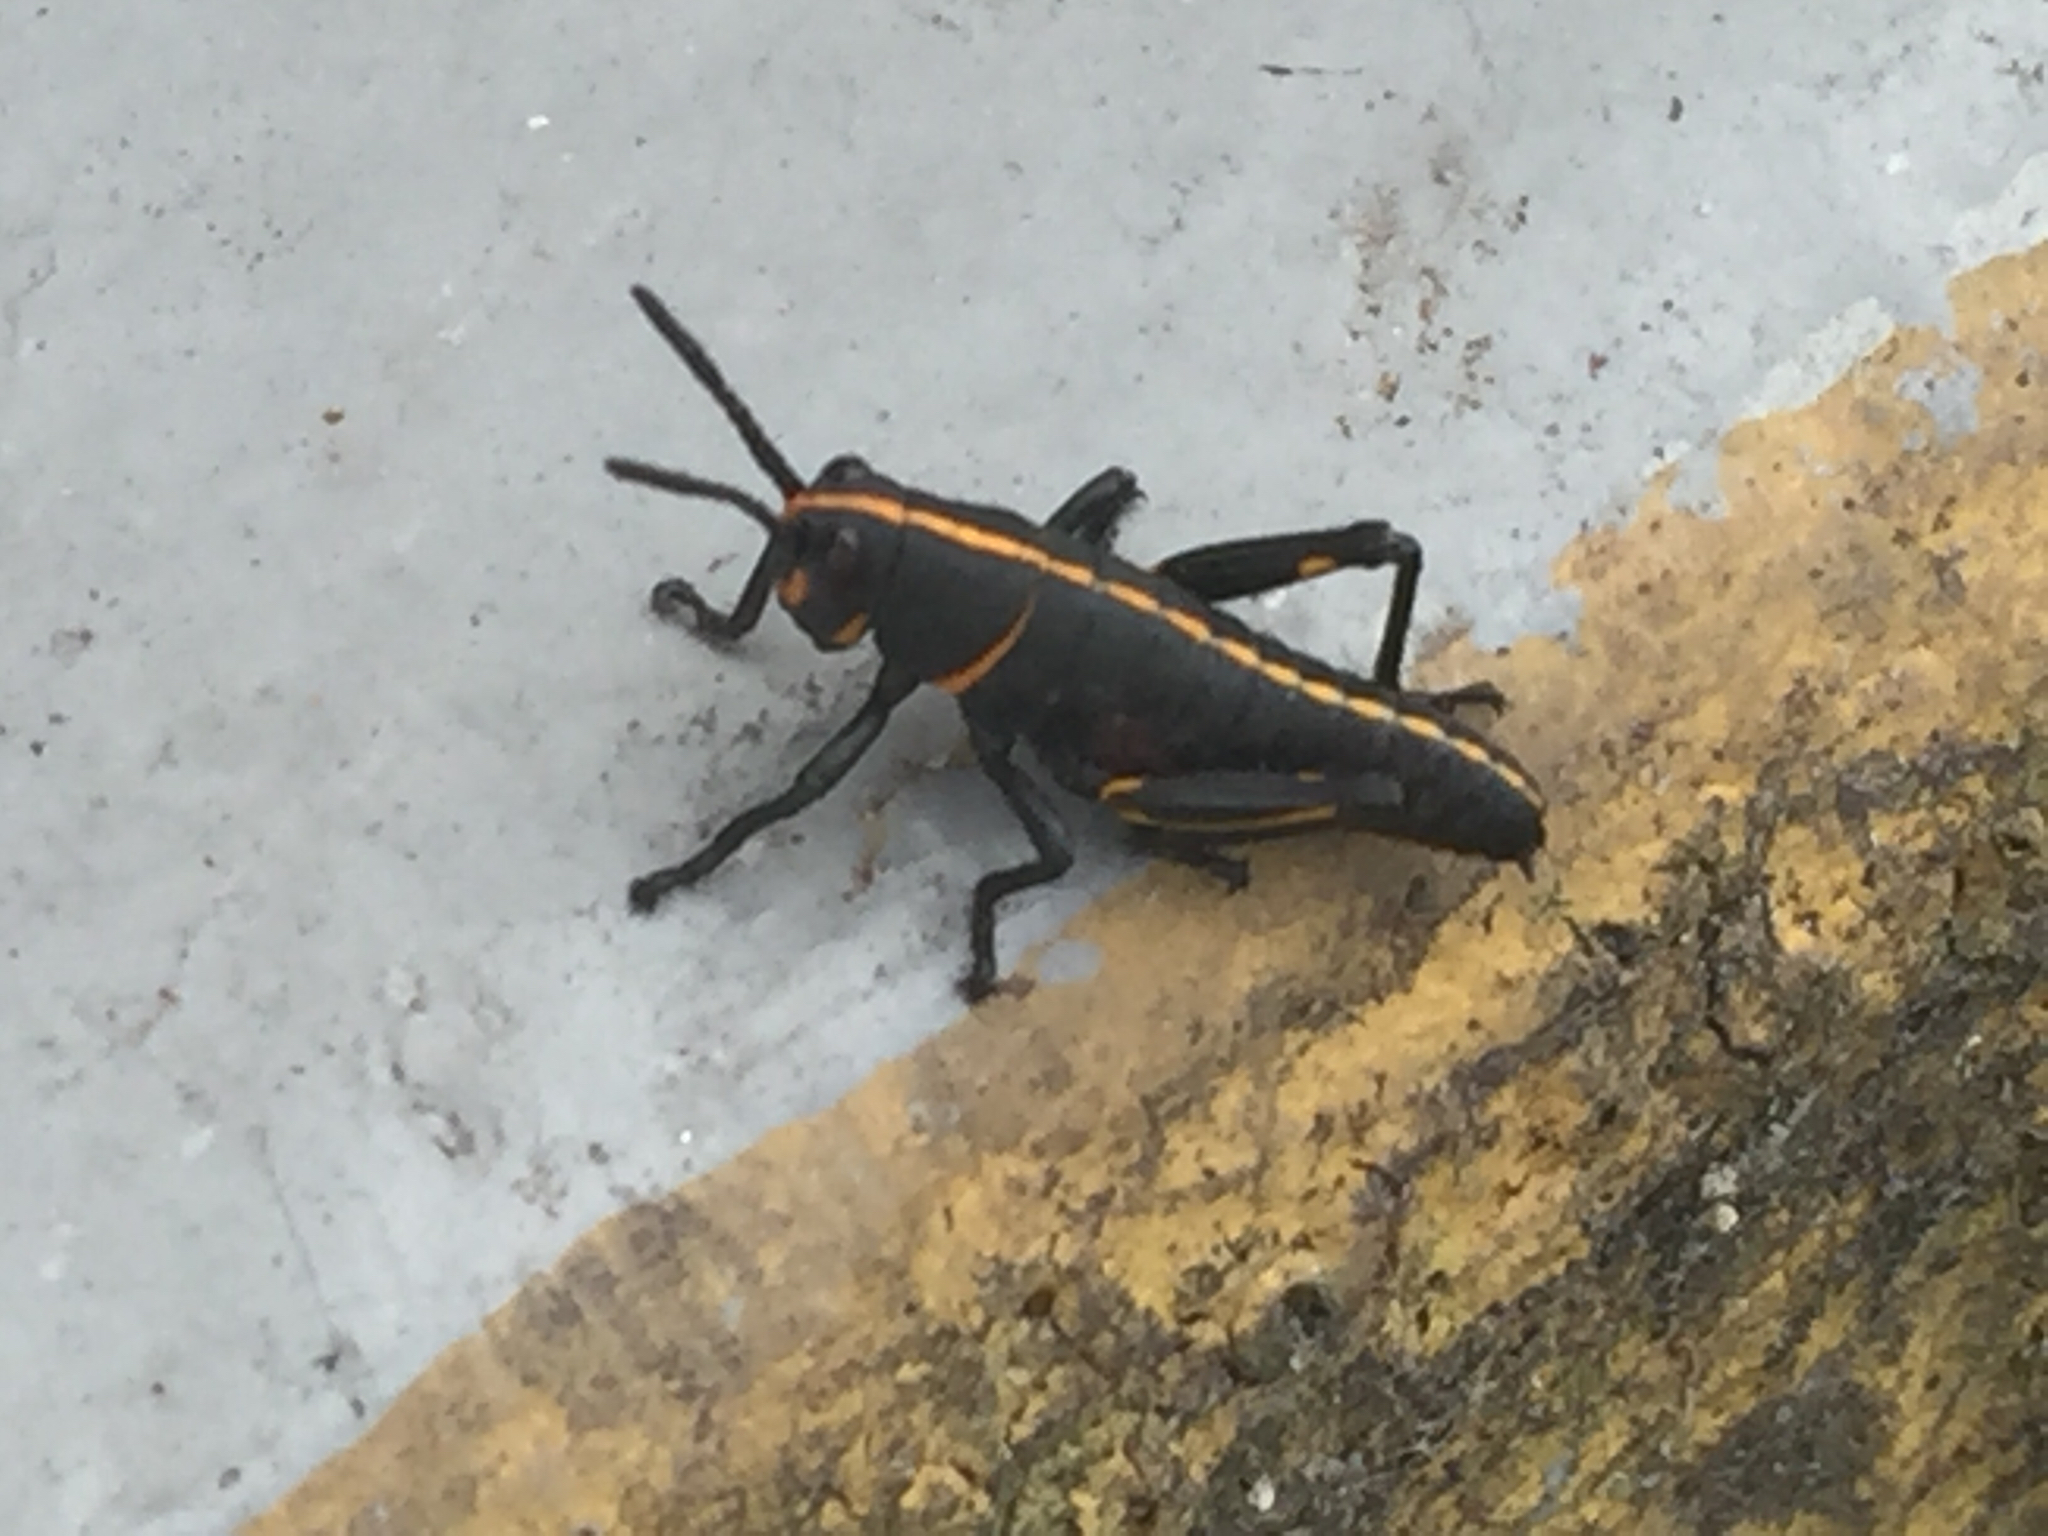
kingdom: Animalia
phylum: Arthropoda
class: Insecta
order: Orthoptera
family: Romaleidae
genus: Romalea
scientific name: Romalea microptera
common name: Eastern lubber grasshopper
